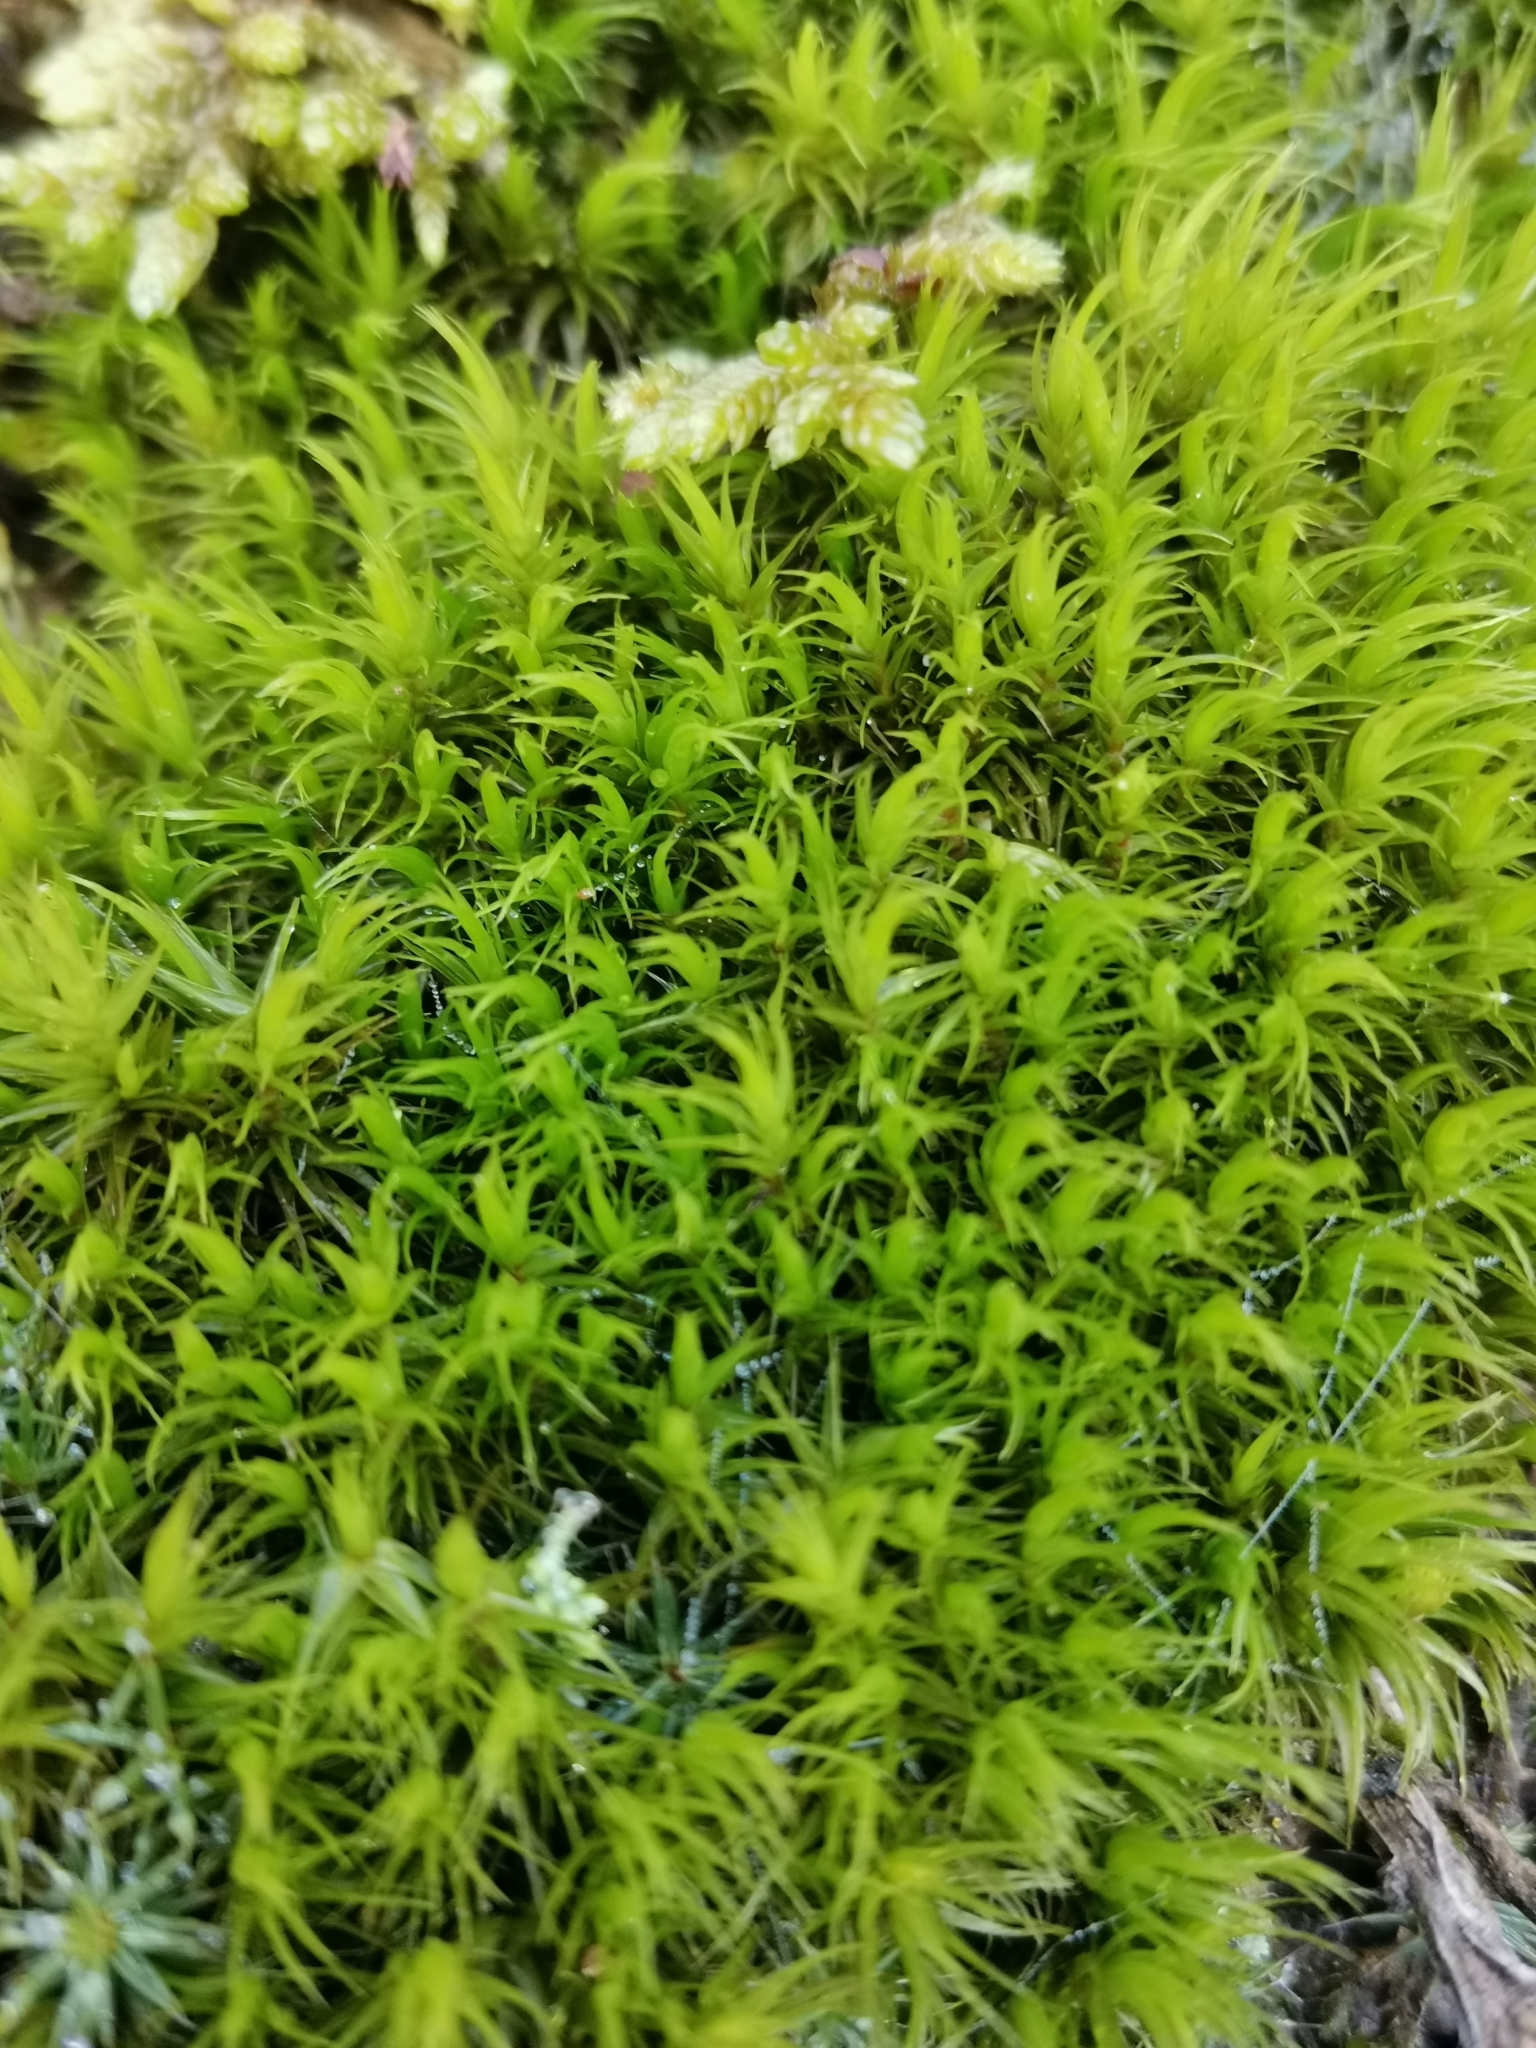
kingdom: Plantae
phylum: Bryophyta
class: Bryopsida
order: Dicranales
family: Dicranaceae
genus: Dicranum
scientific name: Dicranum scoparium
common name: Broom fork-moss
